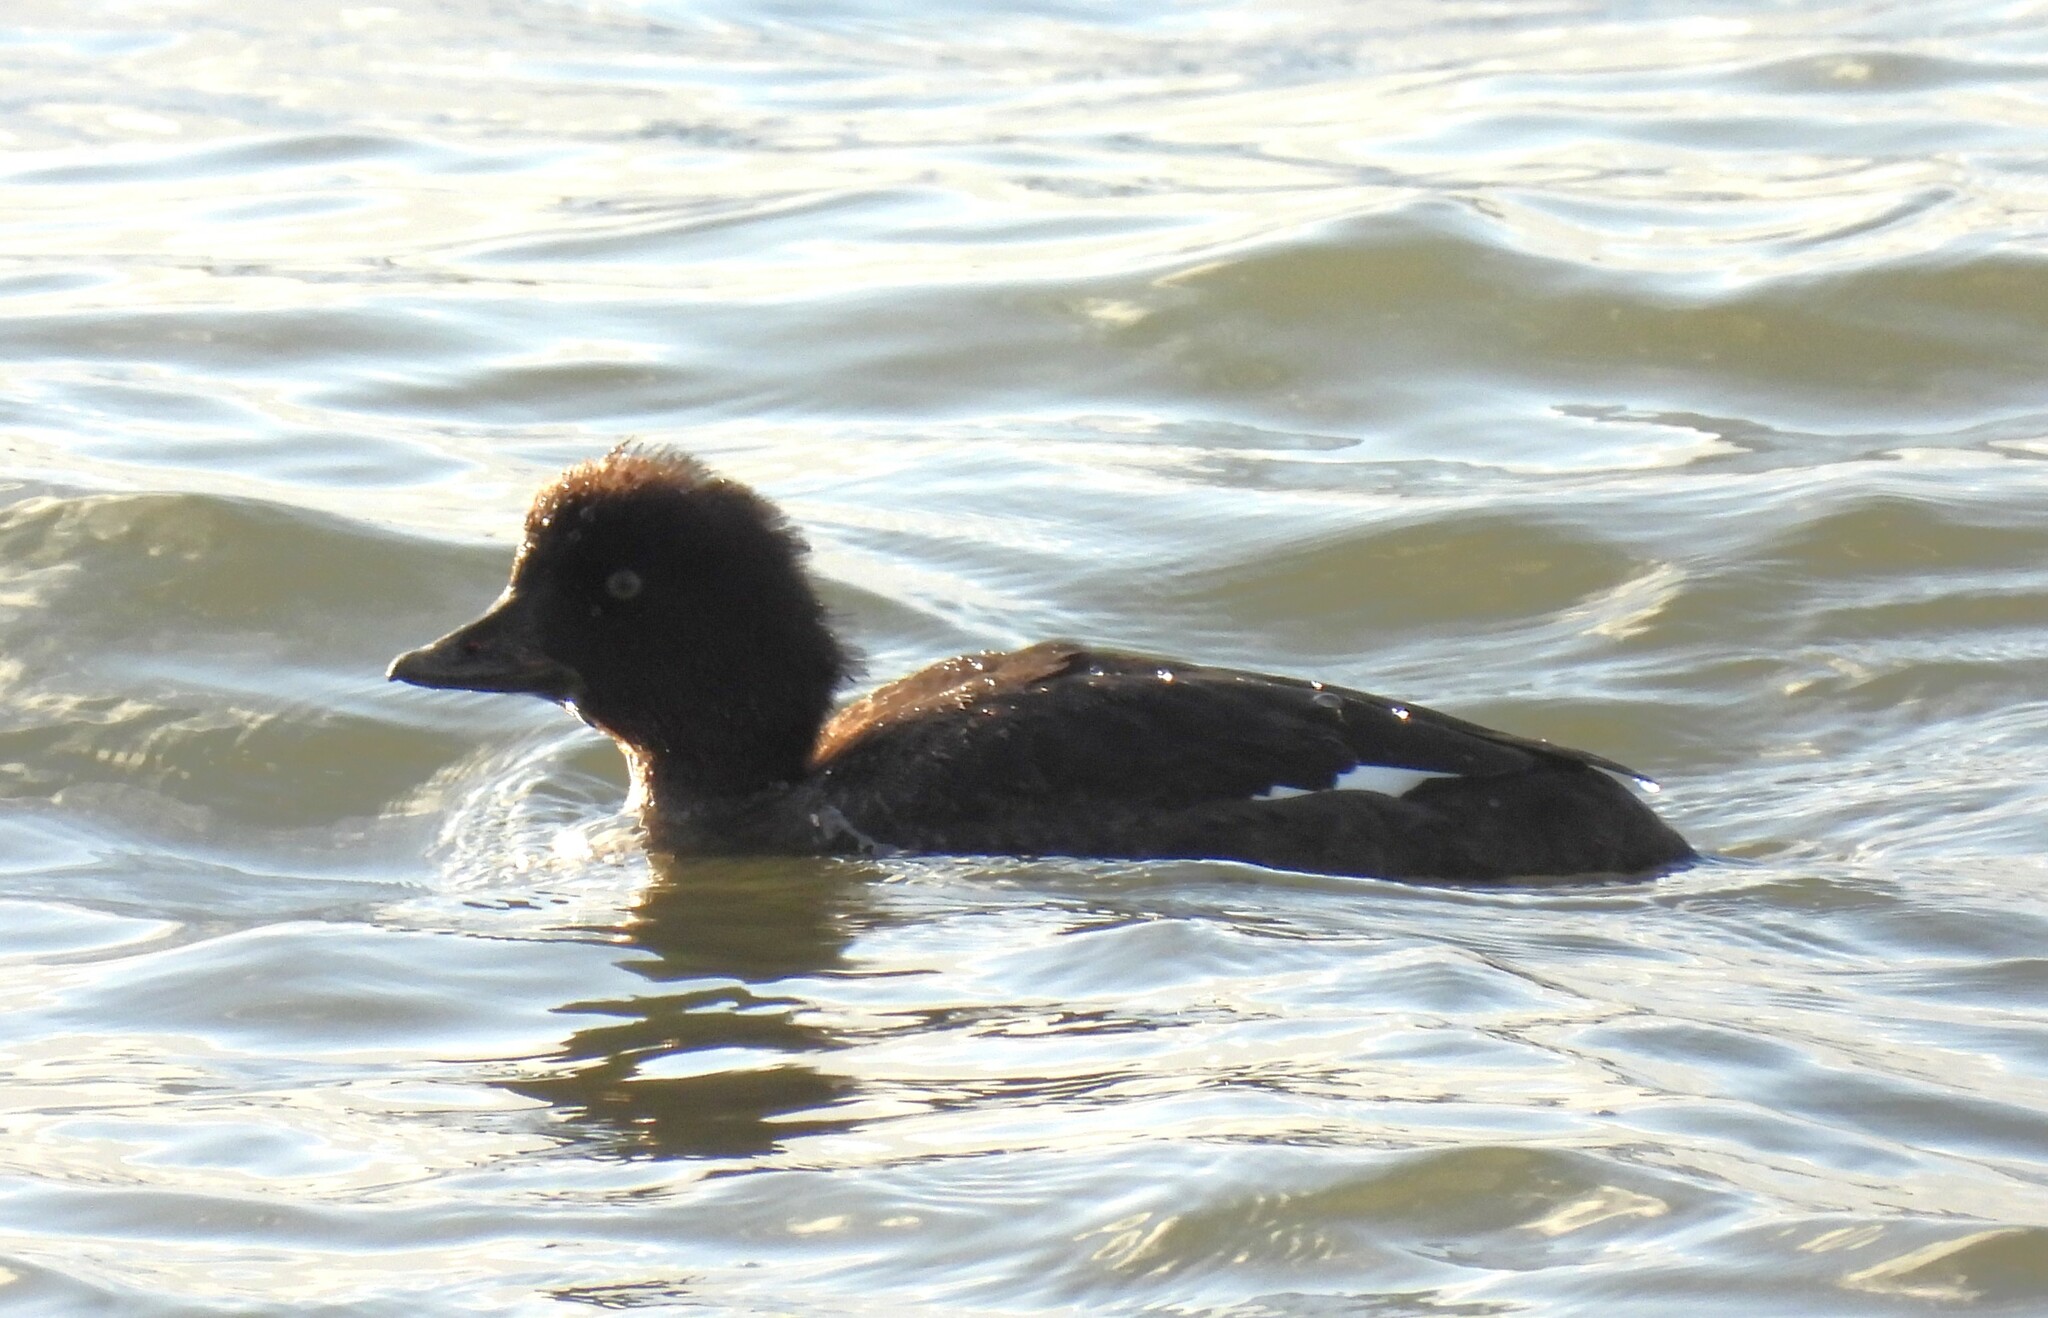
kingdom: Animalia
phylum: Chordata
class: Aves
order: Anseriformes
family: Anatidae
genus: Bucephala
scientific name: Bucephala clangula
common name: Common goldeneye
